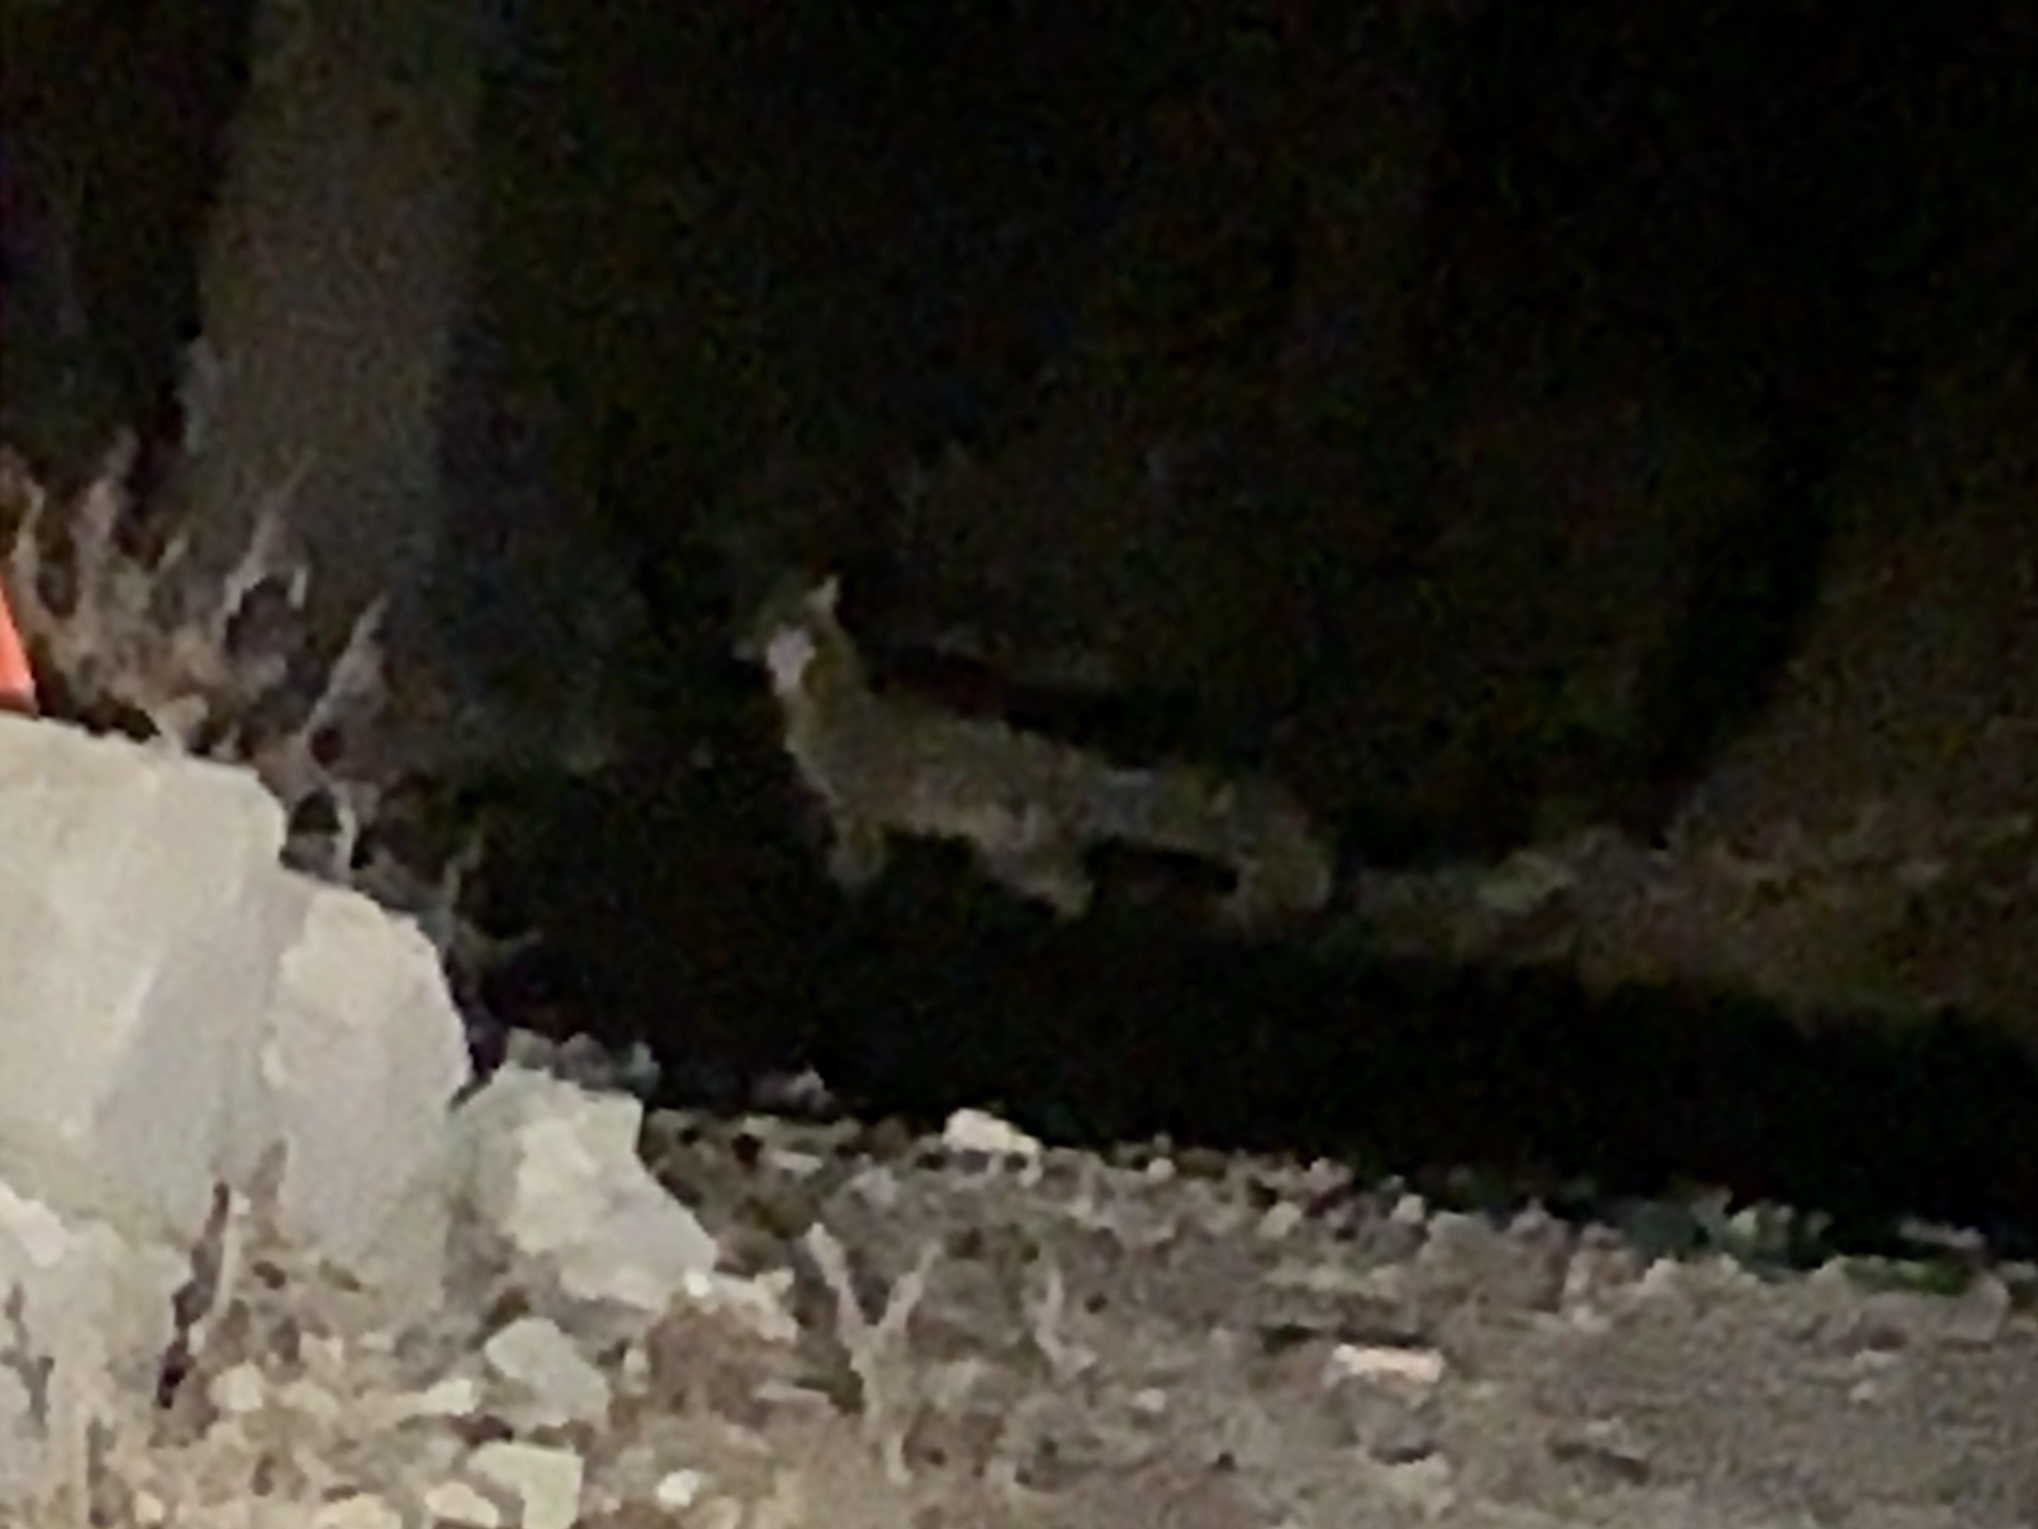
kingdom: Animalia
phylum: Chordata
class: Mammalia
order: Carnivora
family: Canidae
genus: Urocyon
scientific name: Urocyon cinereoargenteus
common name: Gray fox
